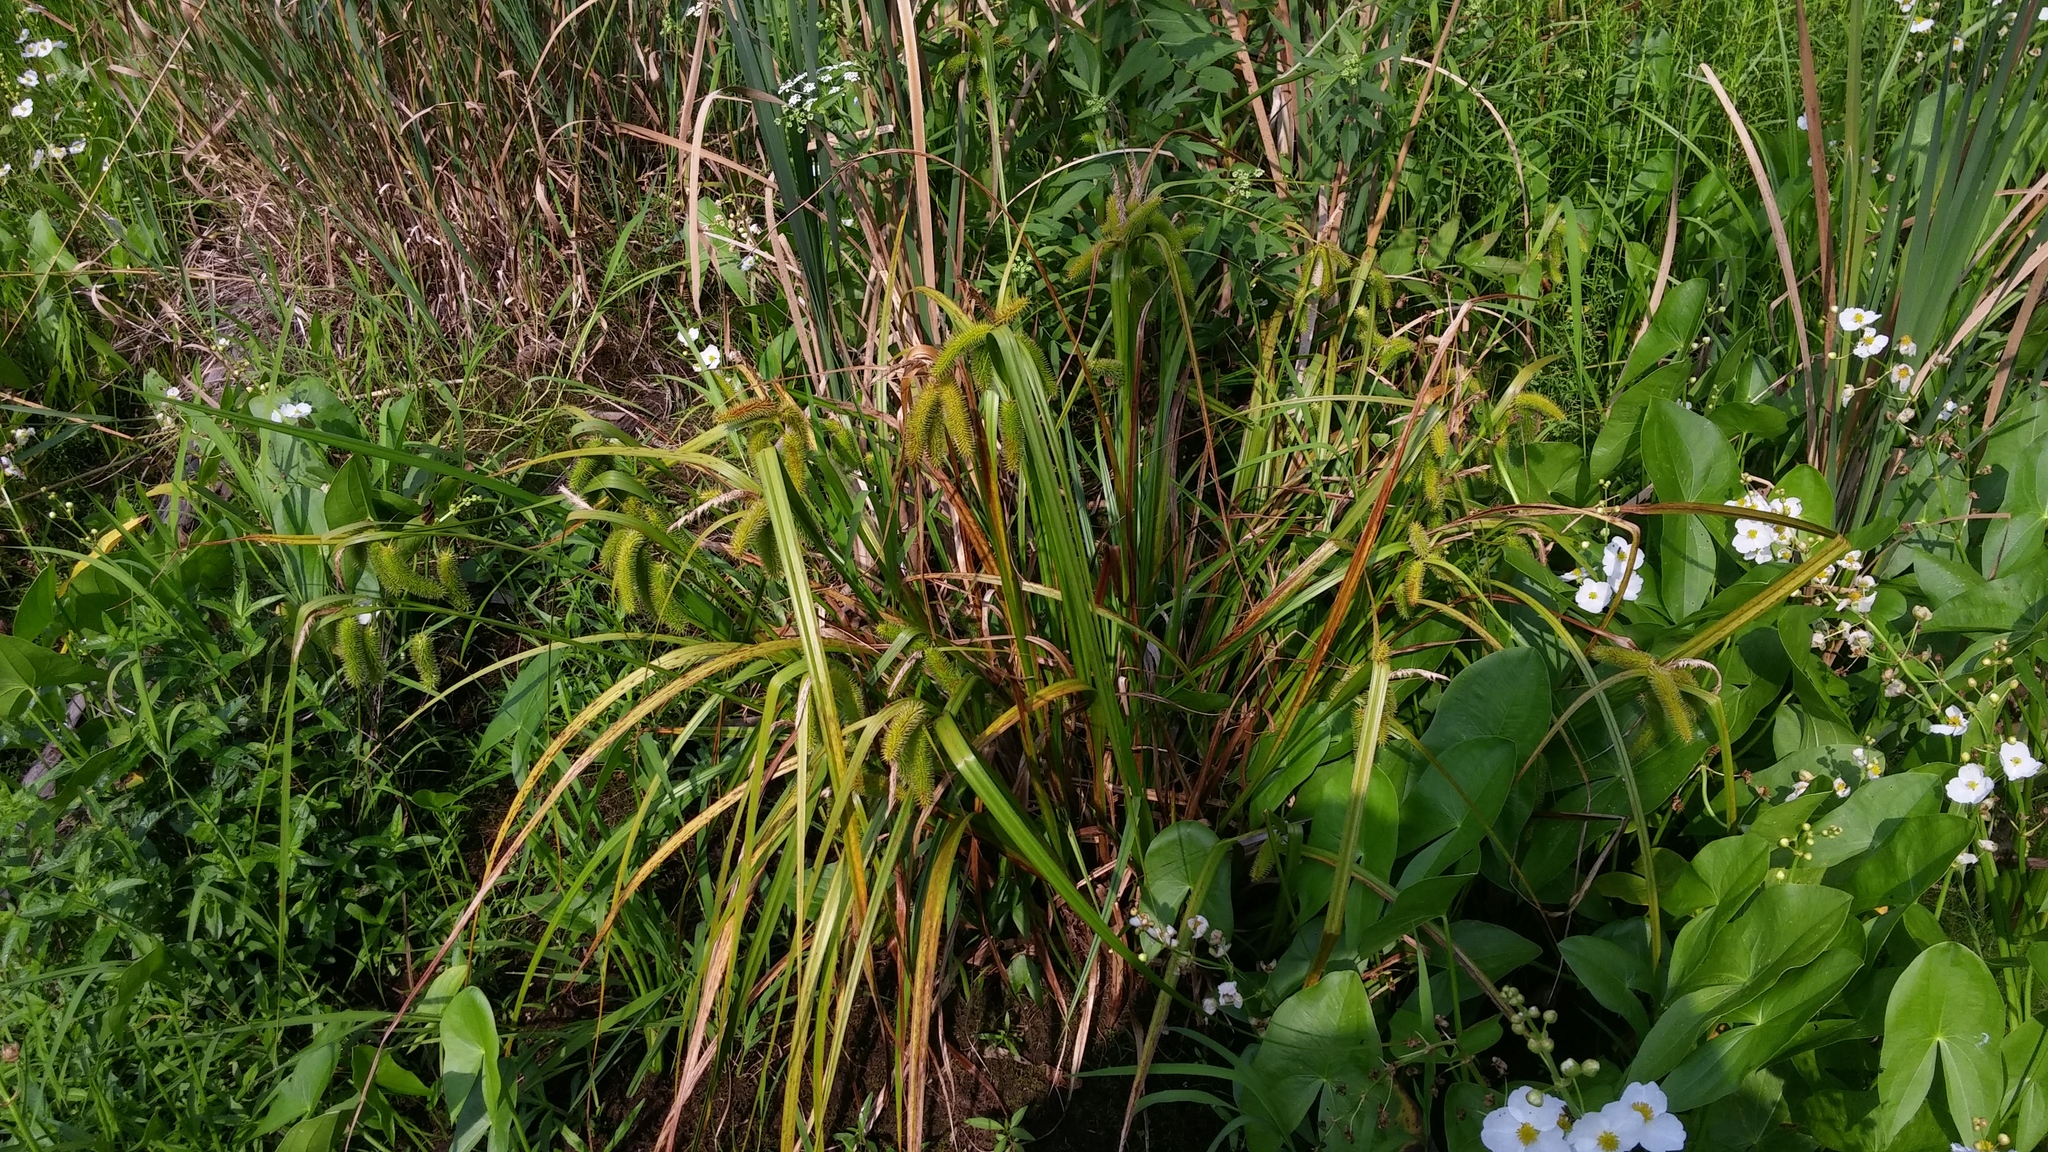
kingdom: Plantae
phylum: Tracheophyta
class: Liliopsida
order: Poales
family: Cyperaceae
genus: Carex
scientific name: Carex comosa
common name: Bristly sedge
